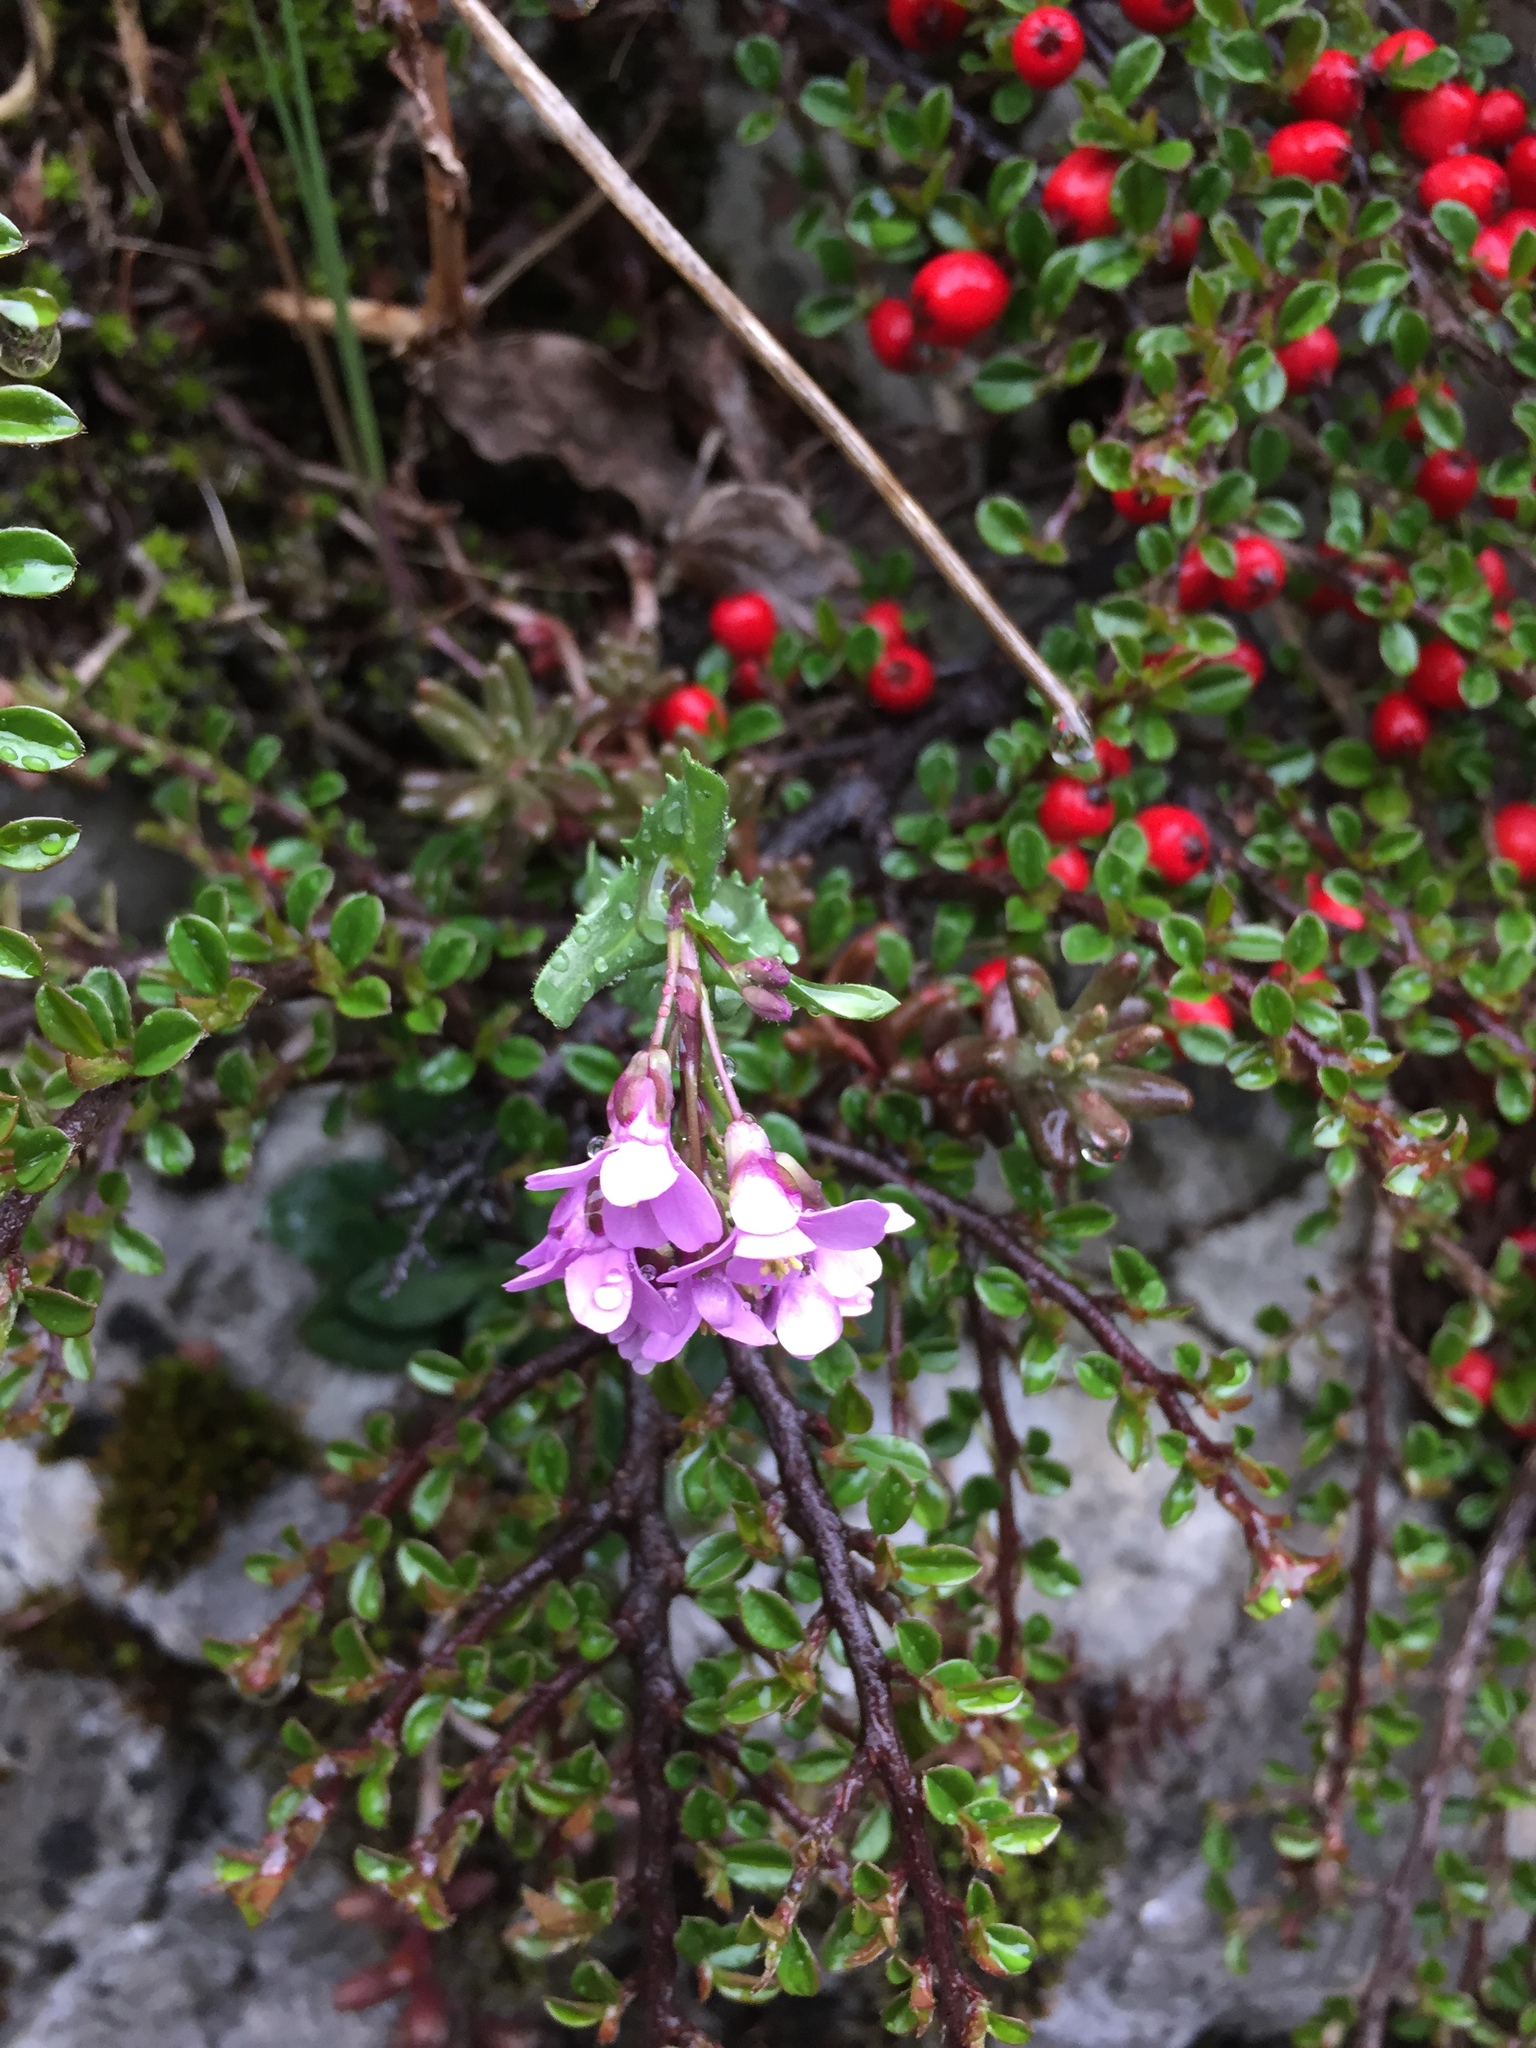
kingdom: Plantae
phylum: Tracheophyta
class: Magnoliopsida
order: Brassicales
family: Brassicaceae
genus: Arabis
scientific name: Arabis collina
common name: Rosy cress
